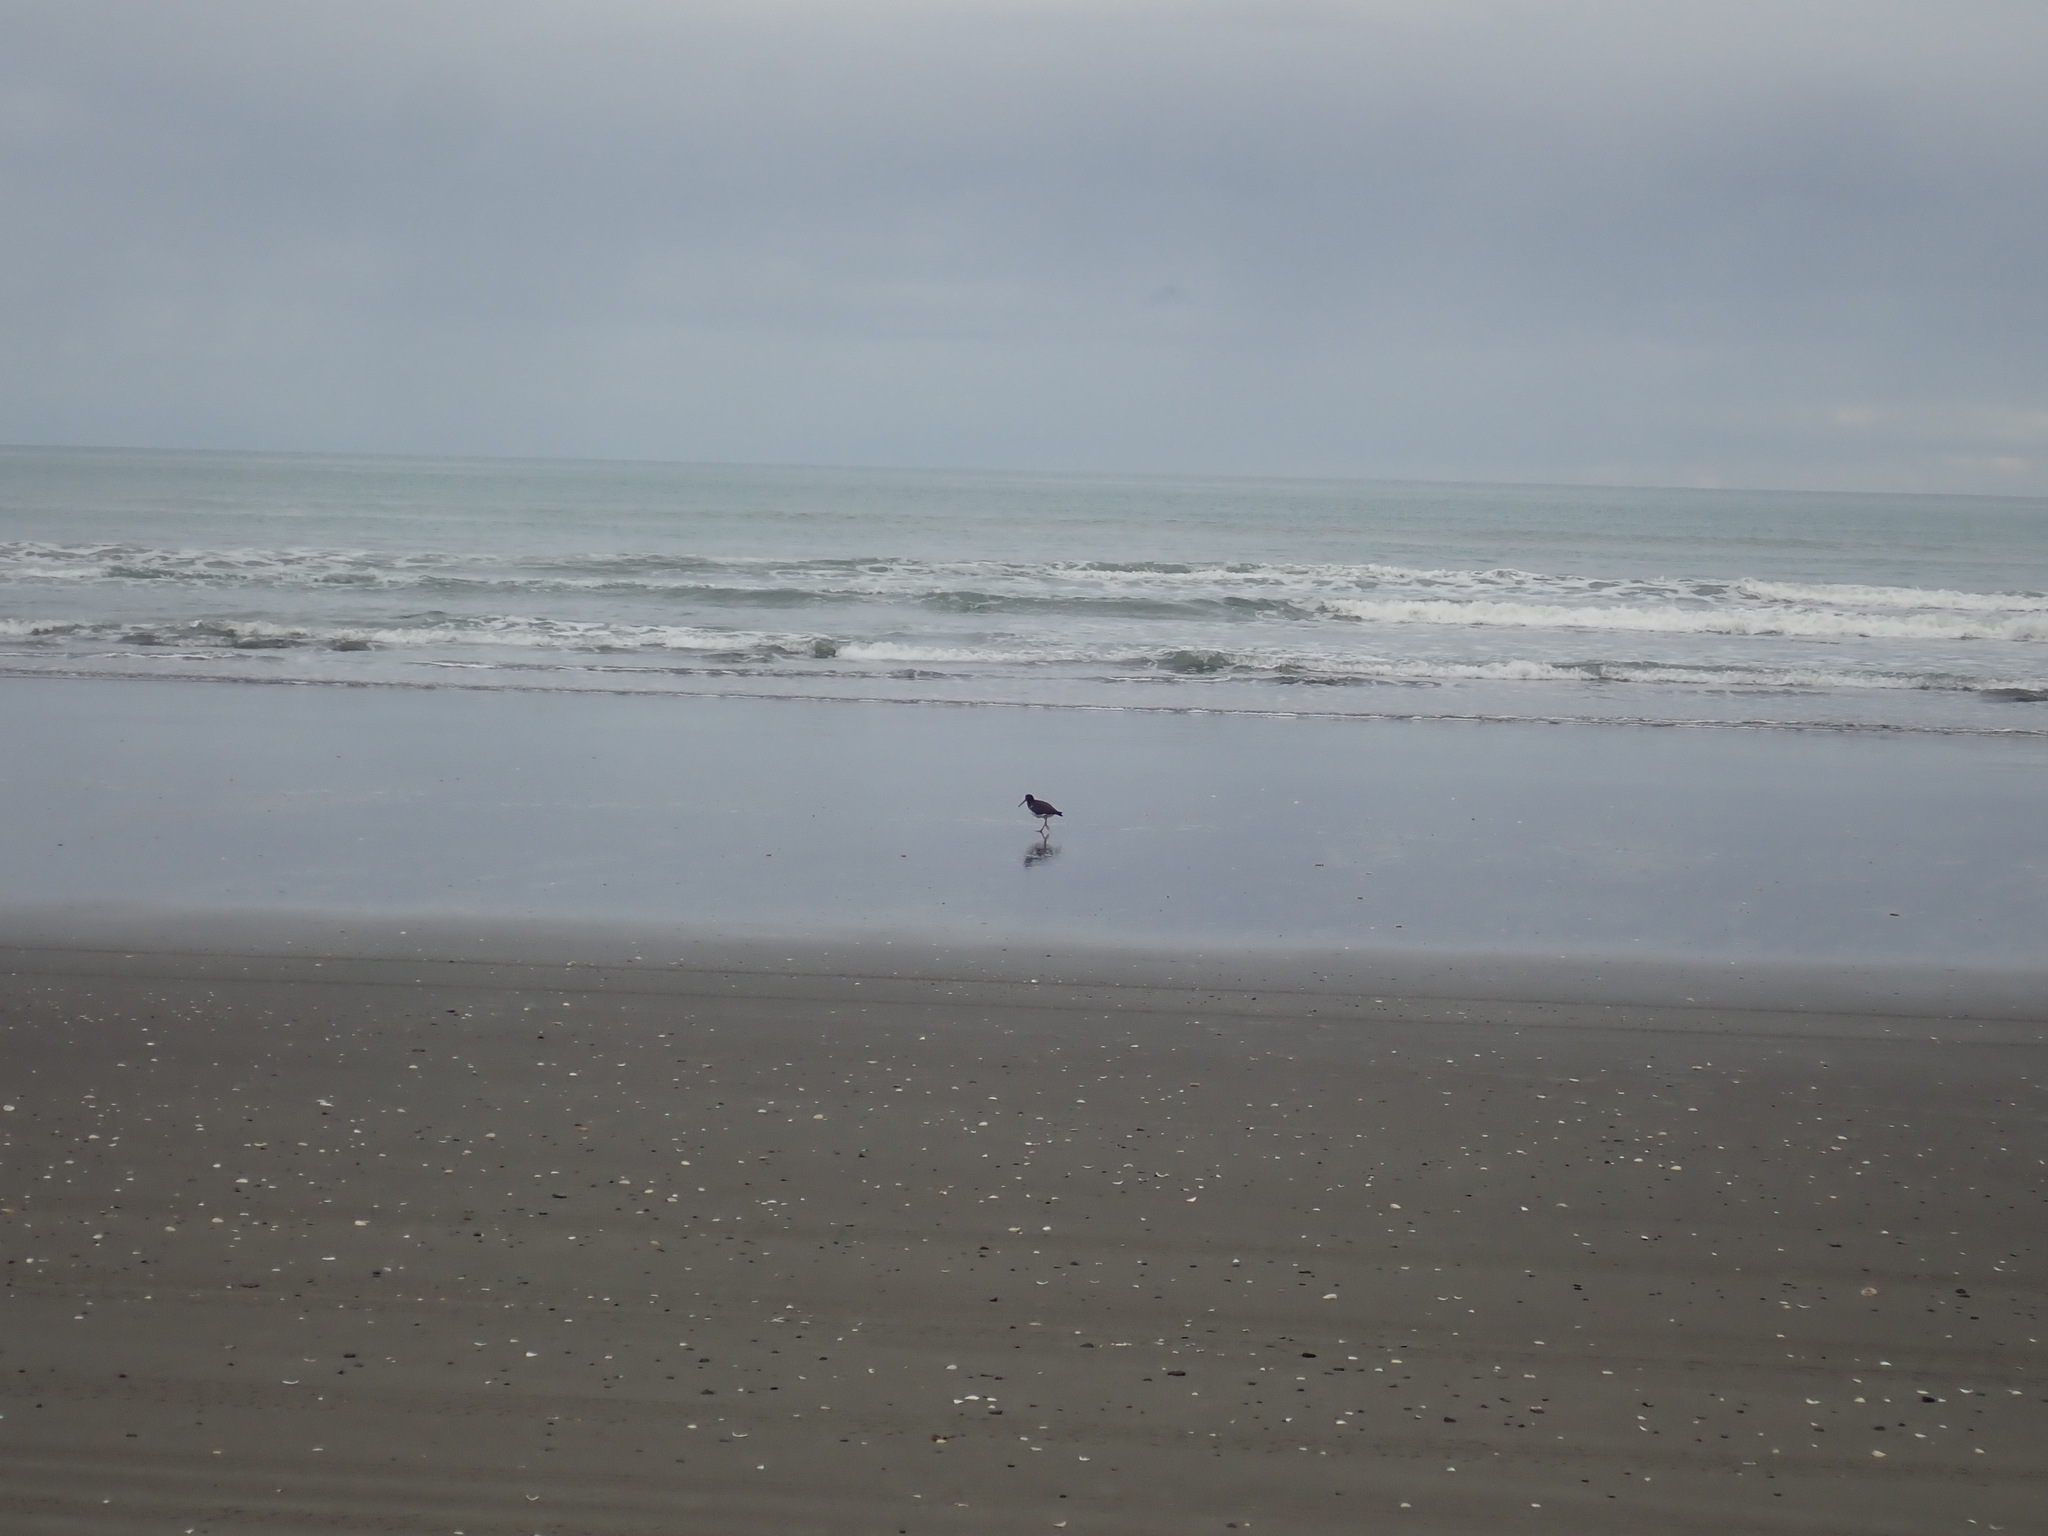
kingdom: Animalia
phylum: Chordata
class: Aves
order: Charadriiformes
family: Haematopodidae
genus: Haematopus
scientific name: Haematopus finschi
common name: South island oystercatcher
